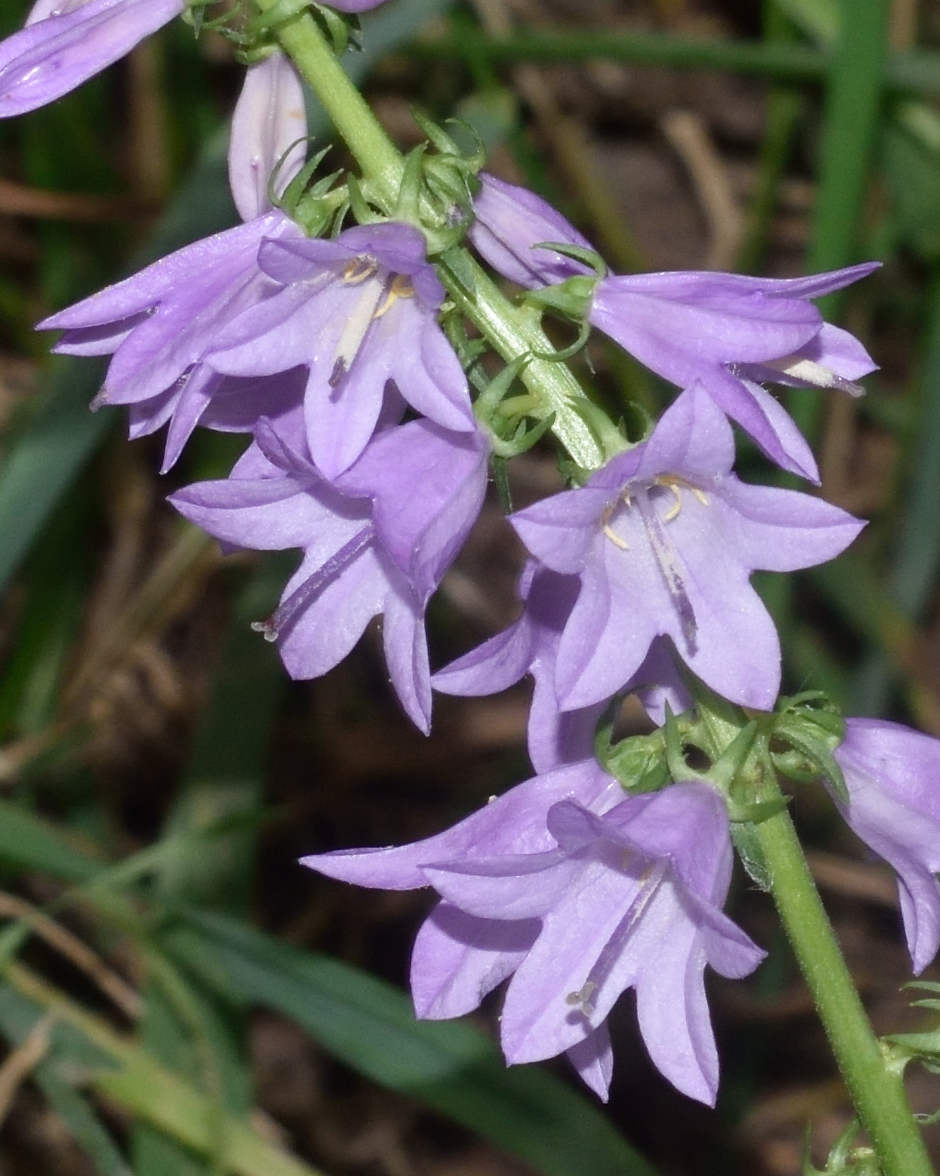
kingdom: Plantae
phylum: Tracheophyta
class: Magnoliopsida
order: Asterales
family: Campanulaceae
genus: Campanula
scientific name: Campanula bononiensis
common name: Pale bellflower
